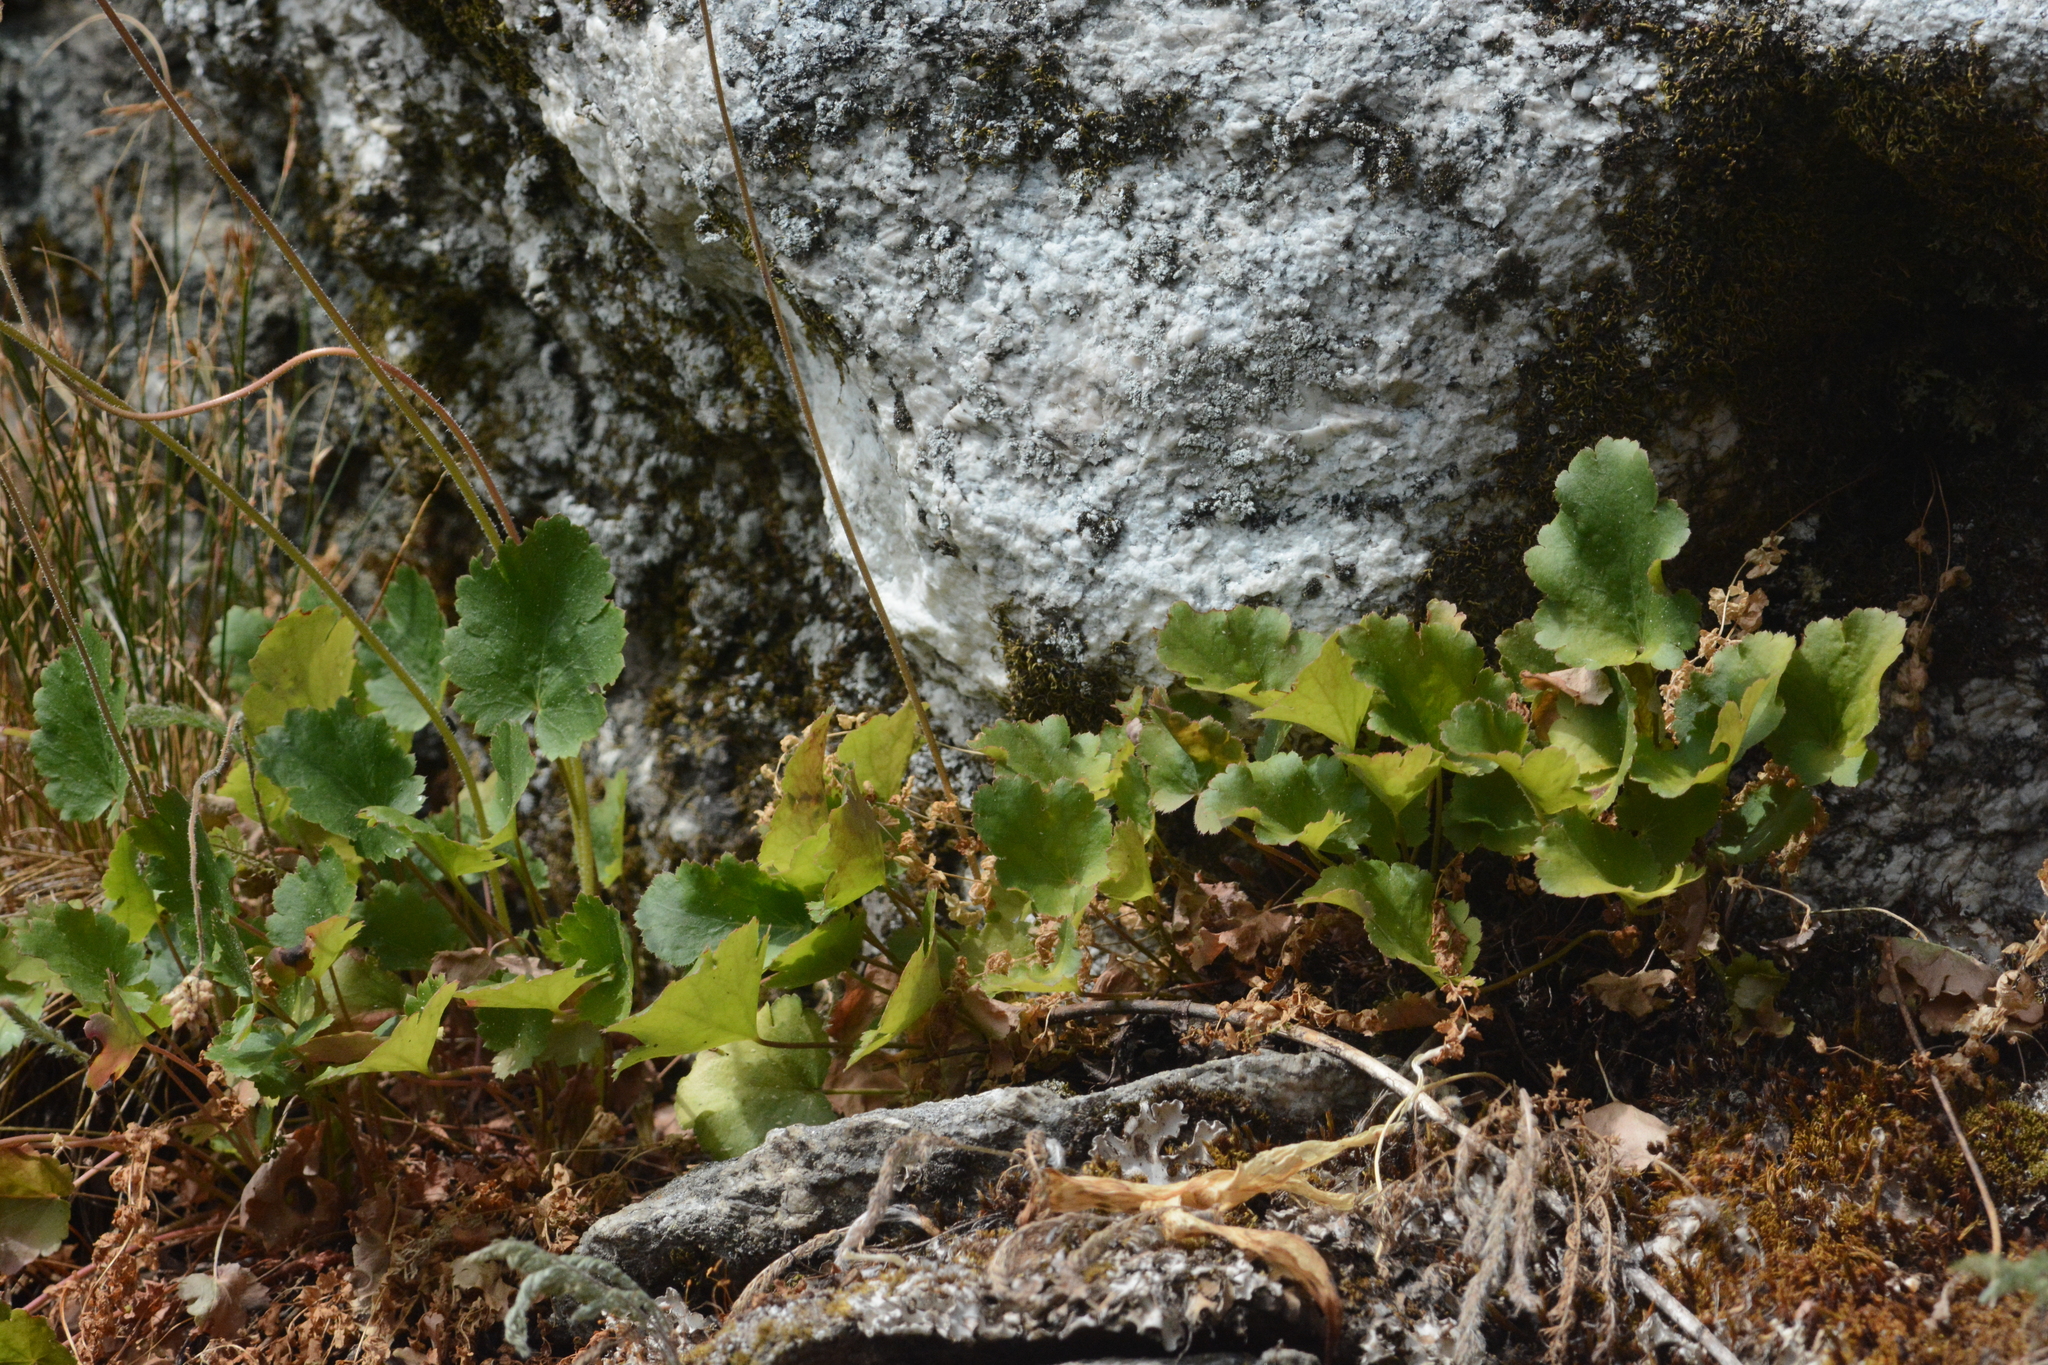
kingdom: Plantae
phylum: Tracheophyta
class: Magnoliopsida
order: Saxifragales
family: Saxifragaceae
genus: Heuchera
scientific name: Heuchera cylindrica
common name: Mat alumroot
